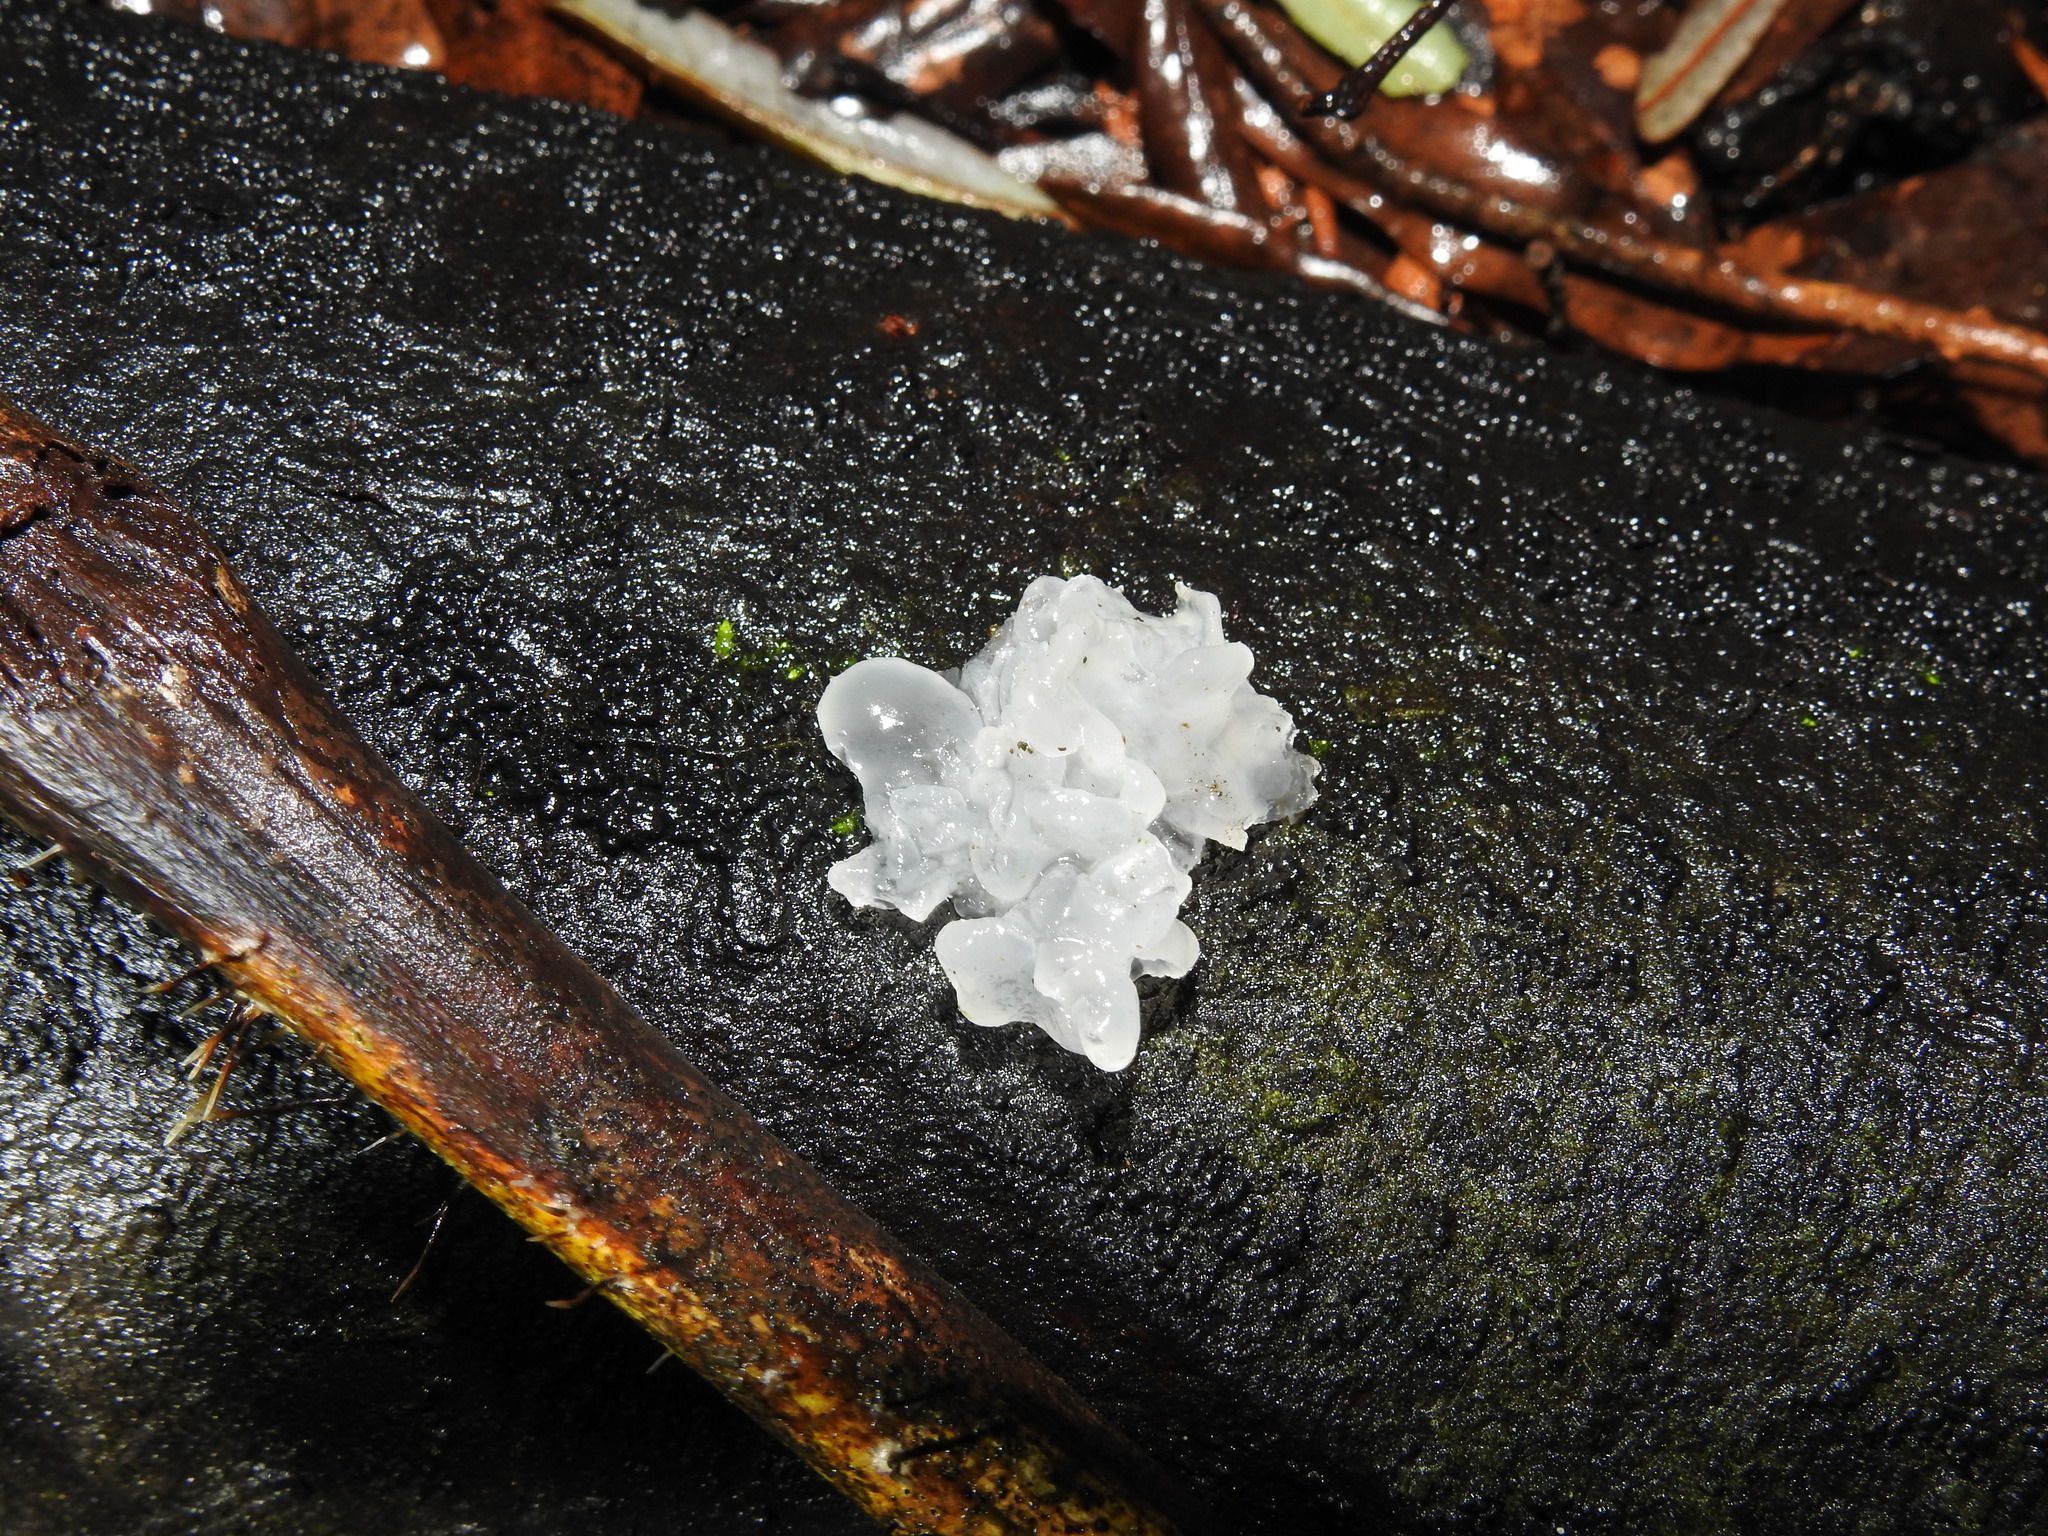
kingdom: Fungi
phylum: Basidiomycota
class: Tremellomycetes
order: Tremellales
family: Tremellaceae
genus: Tremella
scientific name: Tremella fuciformis
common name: Snow fungus
